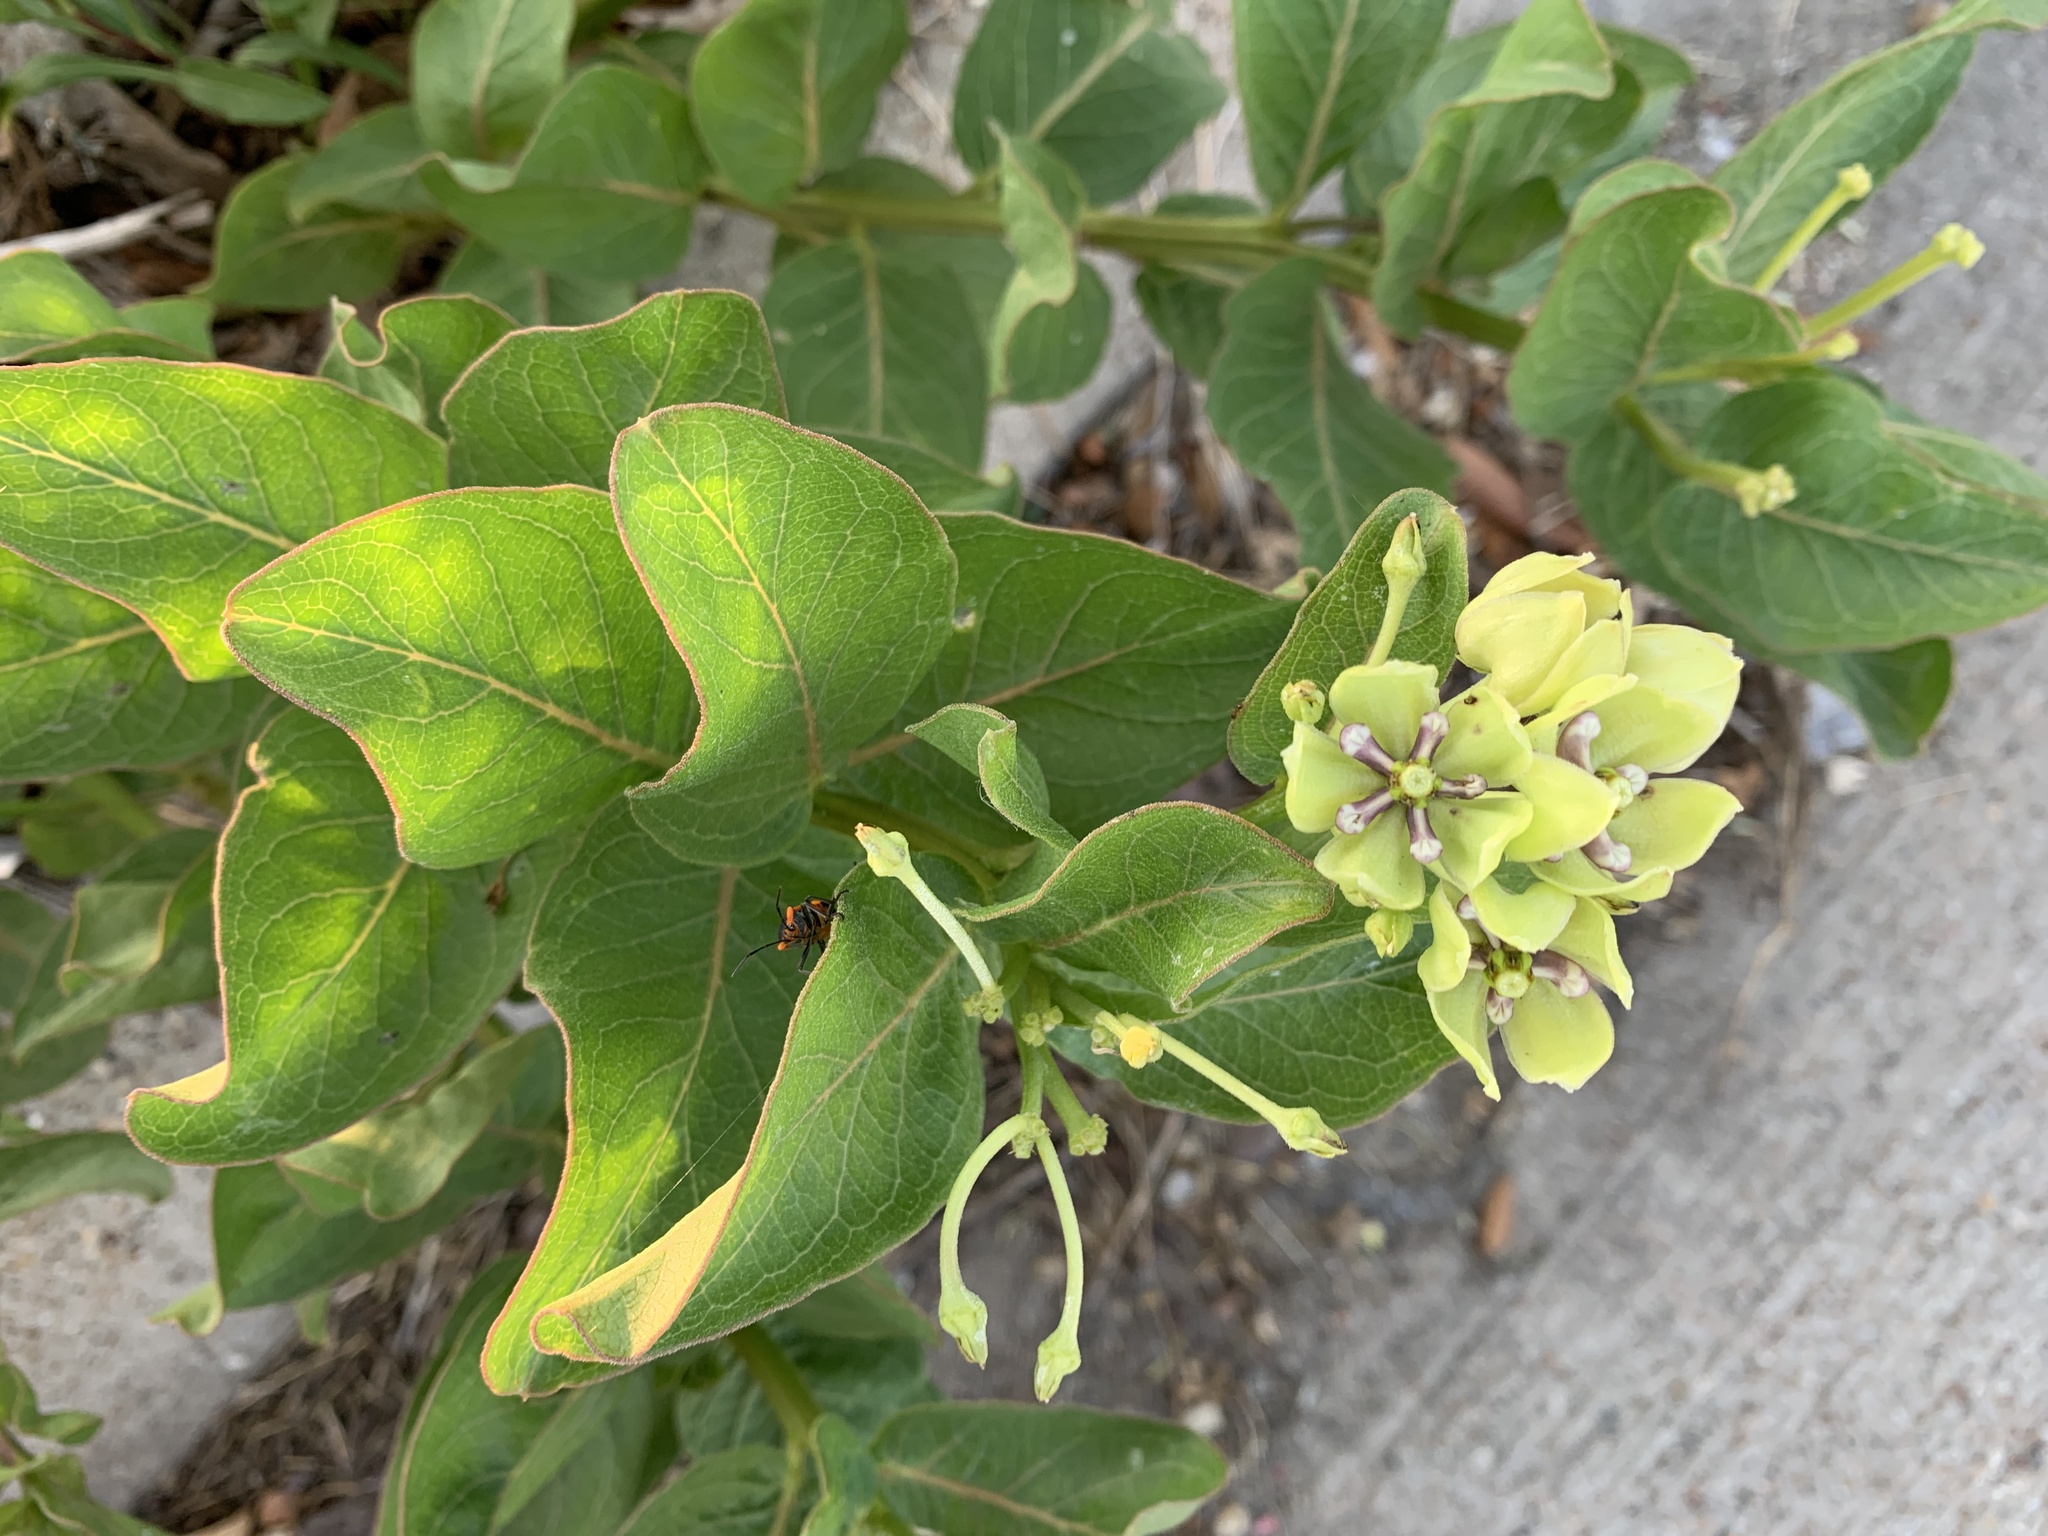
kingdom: Plantae
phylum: Tracheophyta
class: Magnoliopsida
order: Gentianales
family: Apocynaceae
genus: Asclepias
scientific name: Asclepias viridis
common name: Antelope-horns
